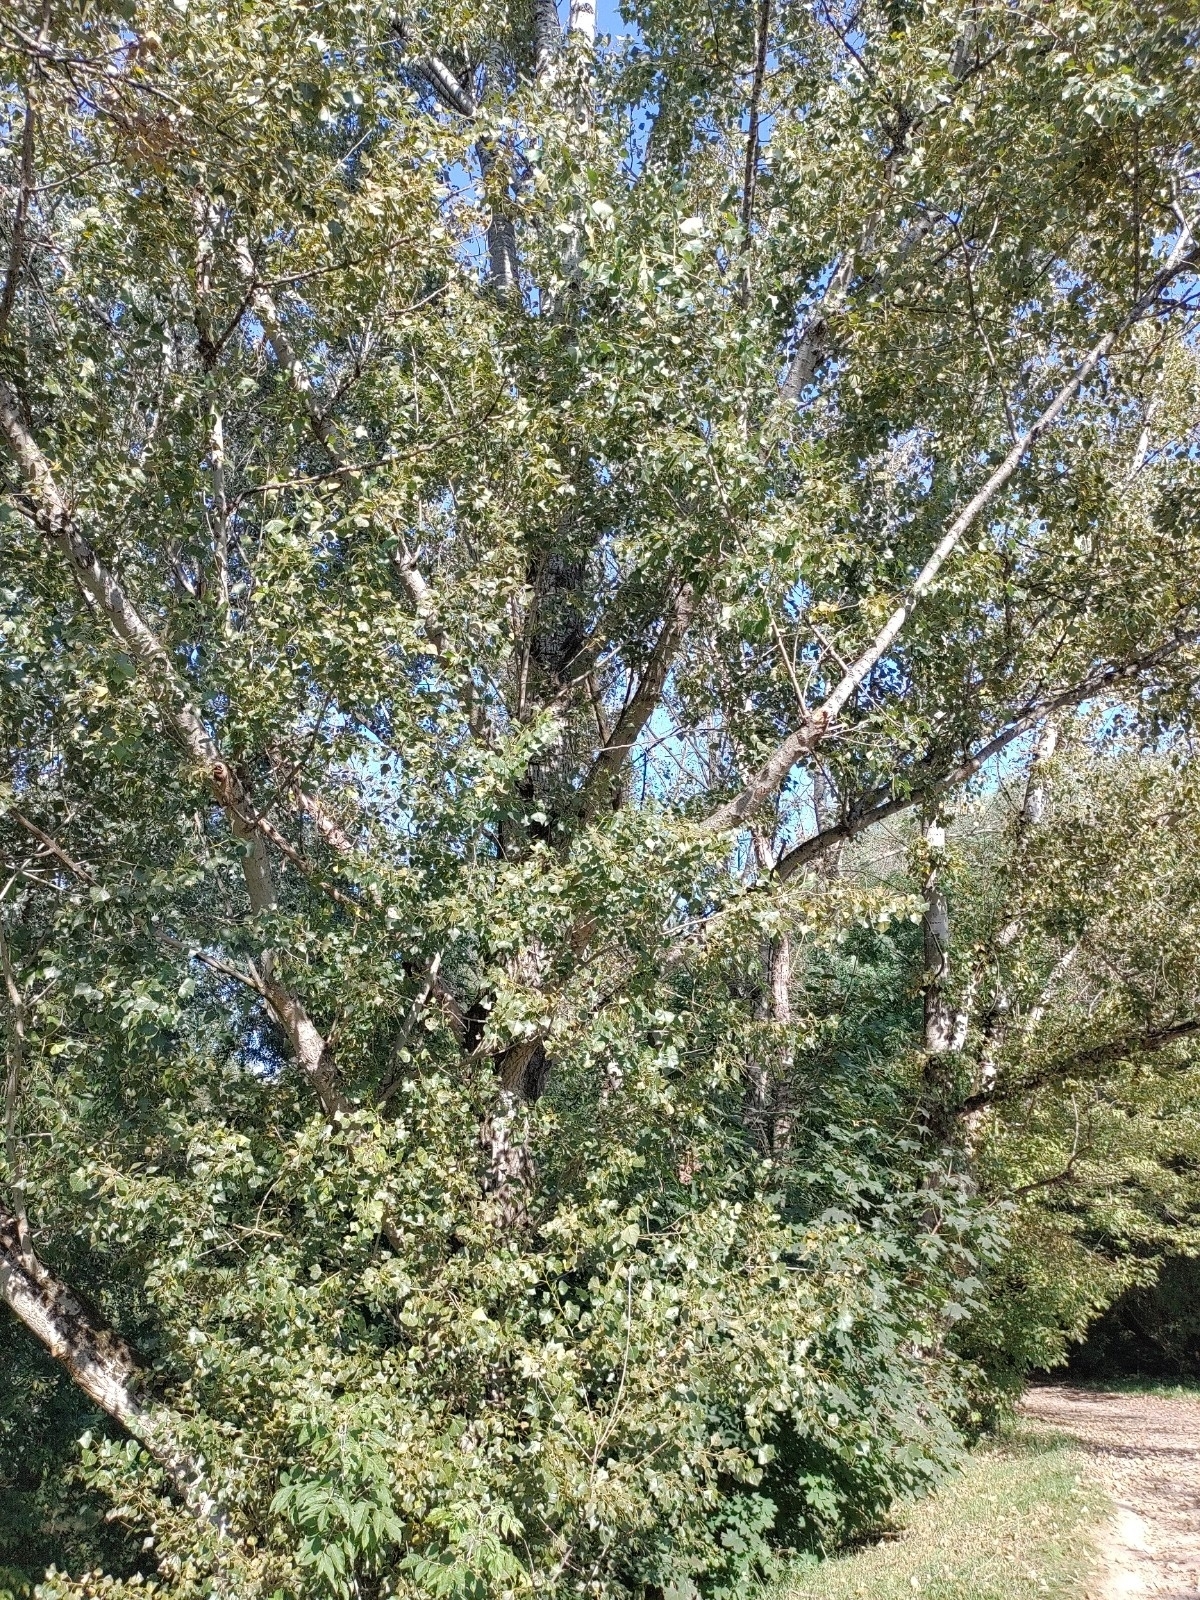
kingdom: Plantae
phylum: Tracheophyta
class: Magnoliopsida
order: Malpighiales
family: Salicaceae
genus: Populus
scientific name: Populus nigra
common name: Black poplar
